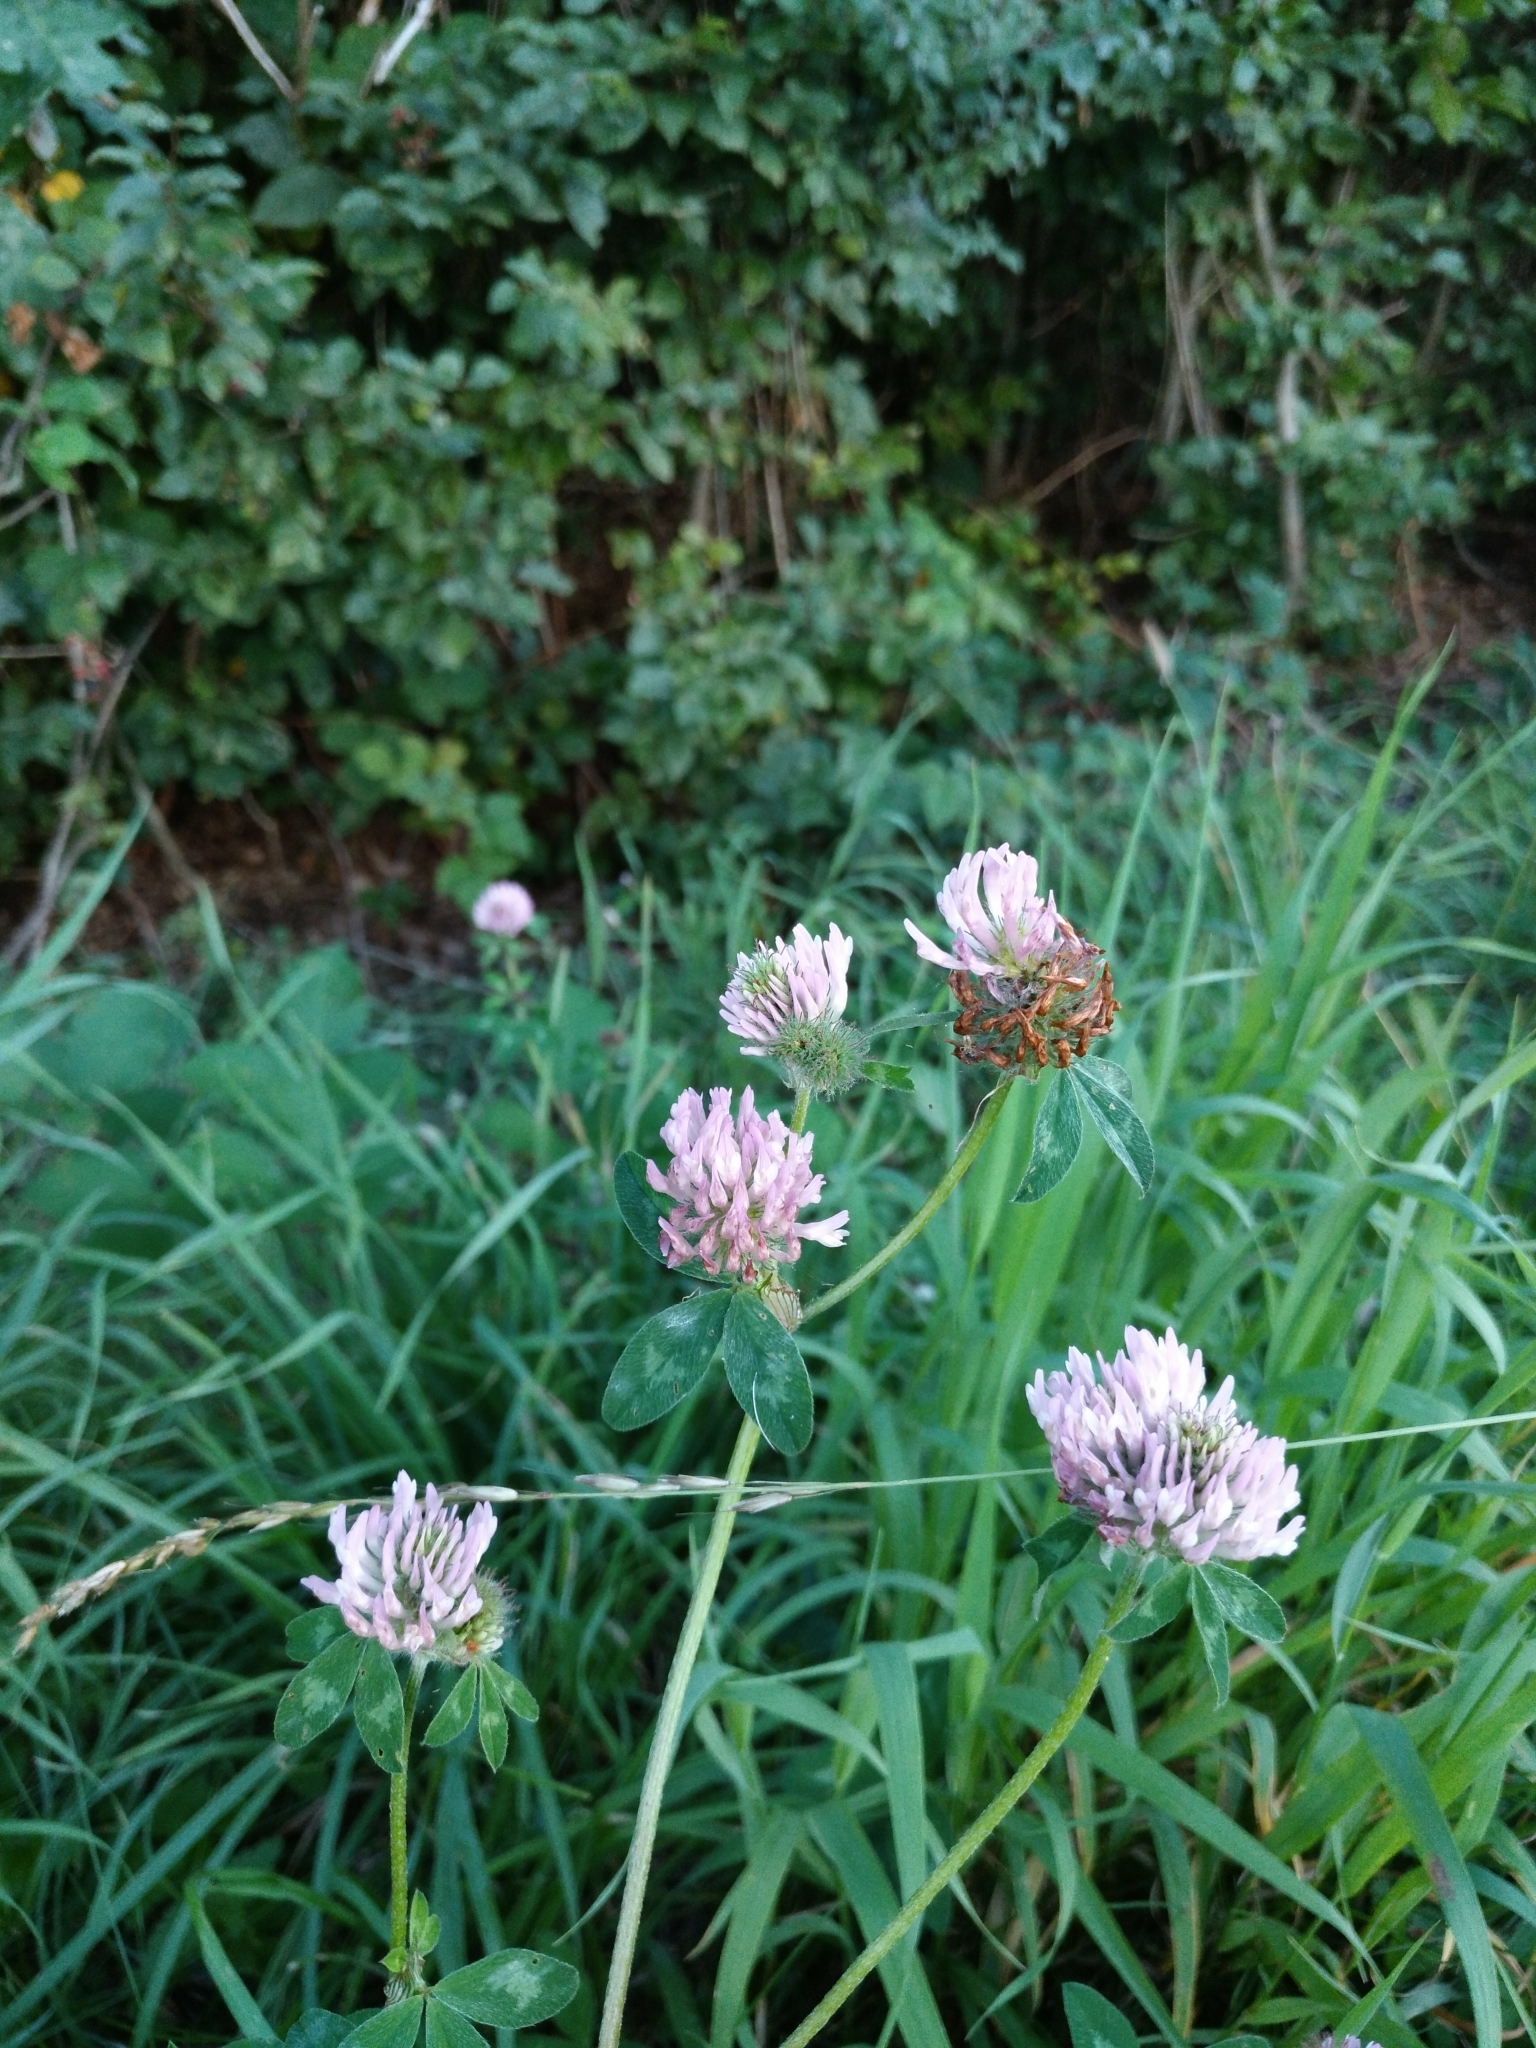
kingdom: Plantae
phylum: Tracheophyta
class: Magnoliopsida
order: Fabales
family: Fabaceae
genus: Trifolium
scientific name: Trifolium pratense
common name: Red clover
